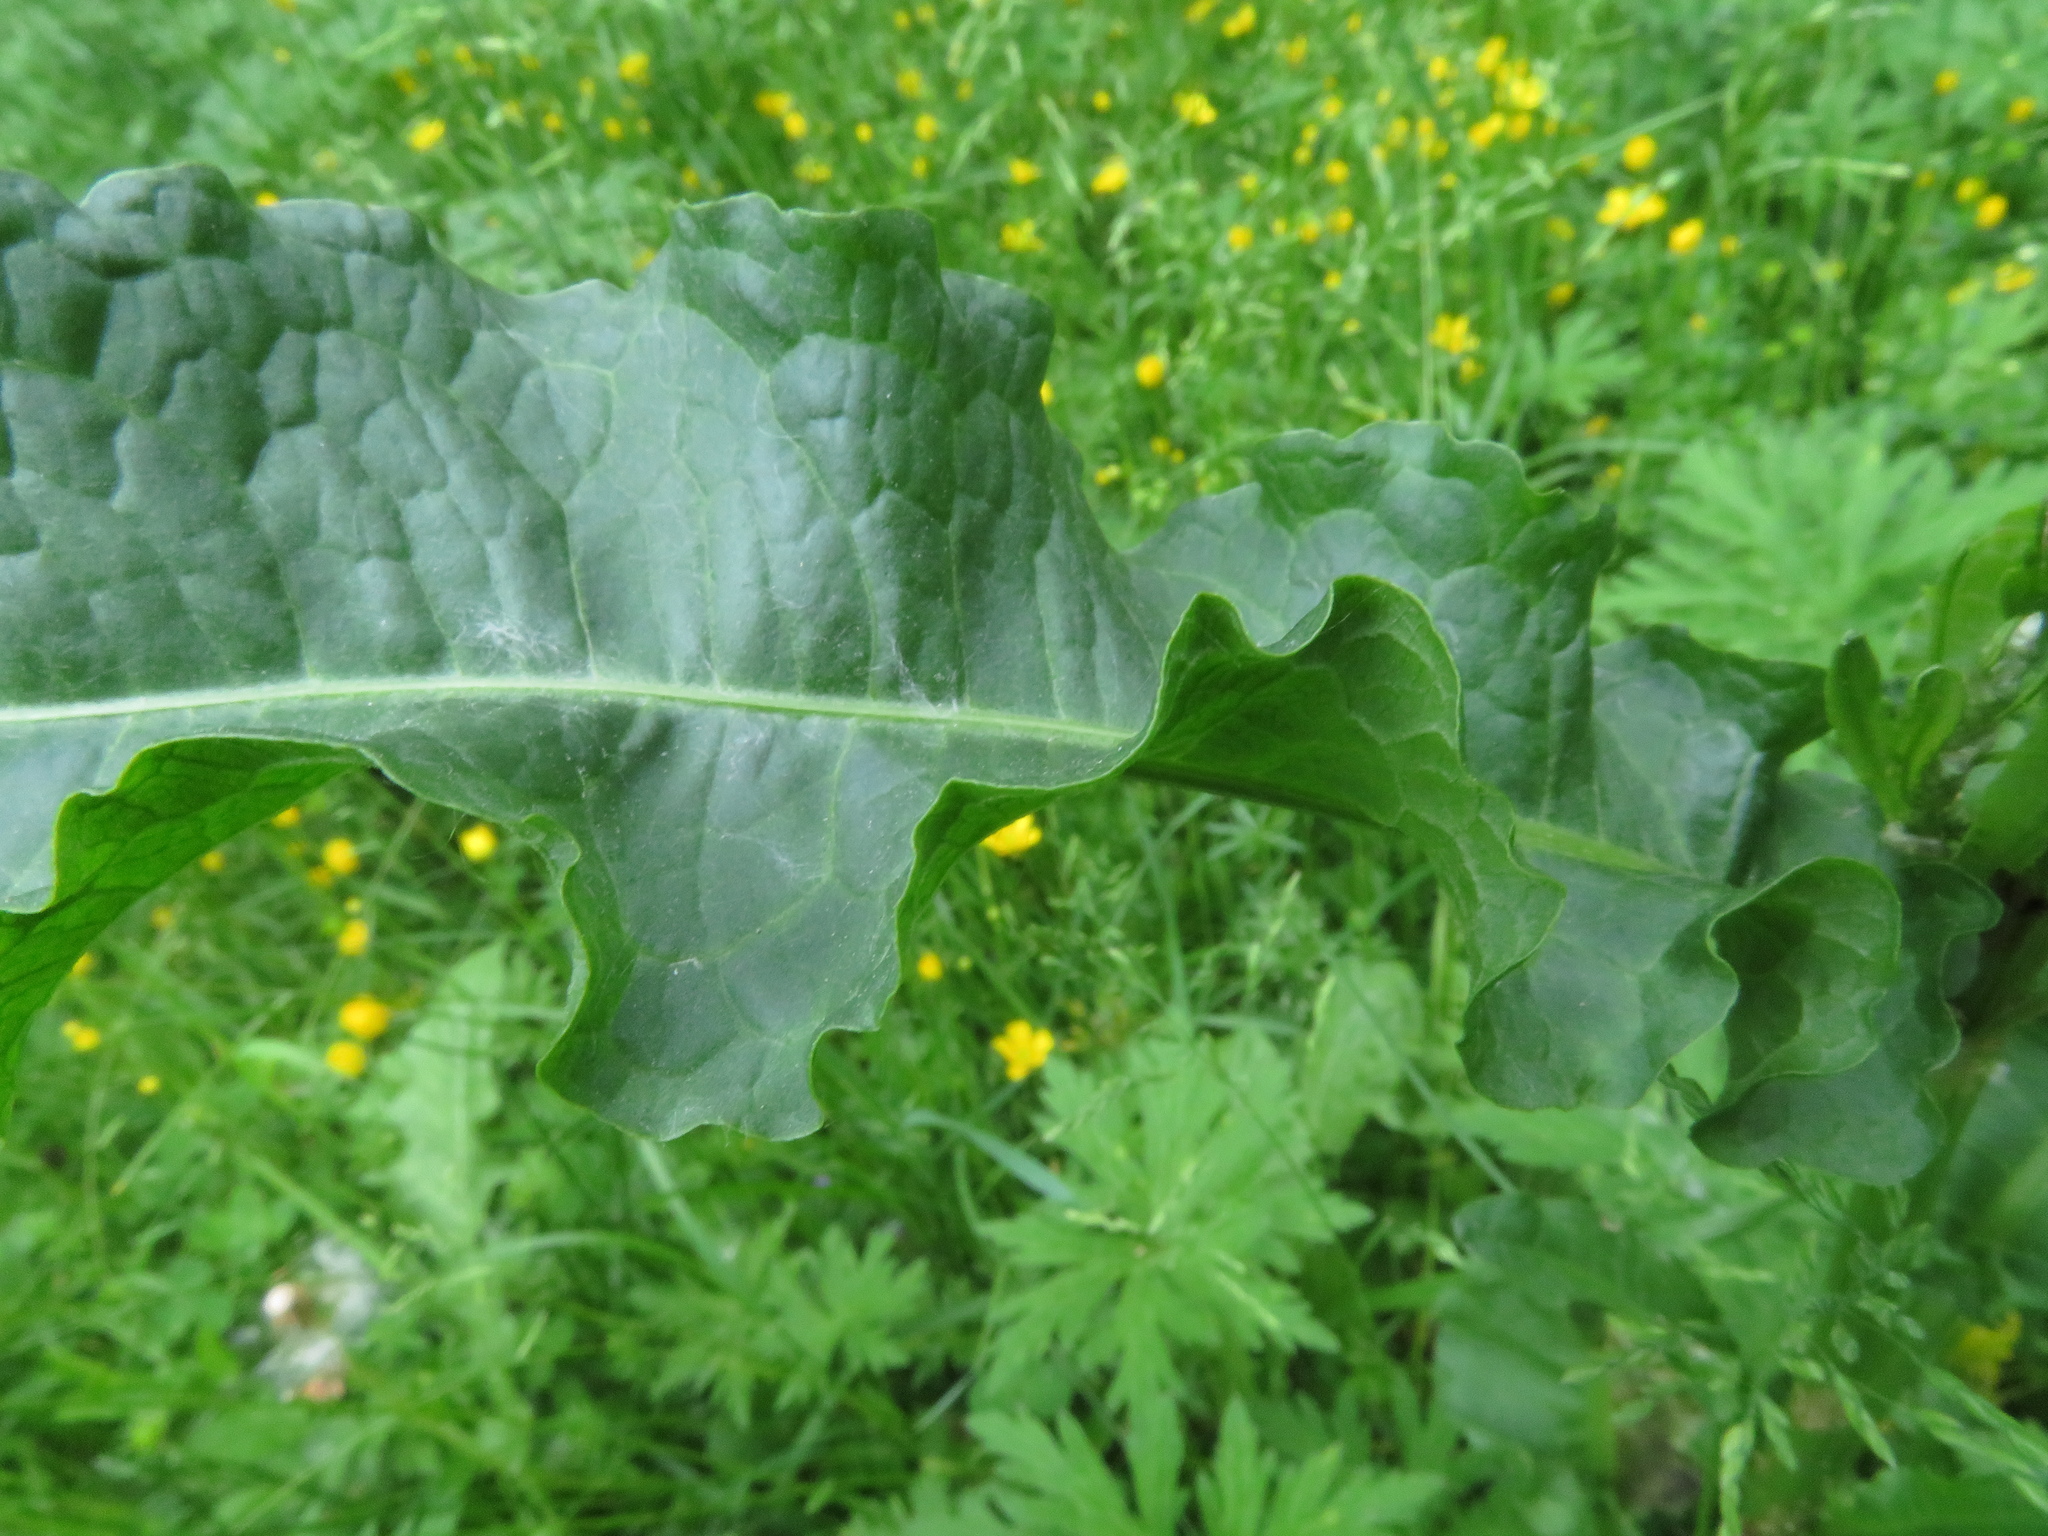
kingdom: Plantae
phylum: Tracheophyta
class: Magnoliopsida
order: Caryophyllales
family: Polygonaceae
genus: Rumex
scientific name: Rumex crispus
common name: Curled dock
